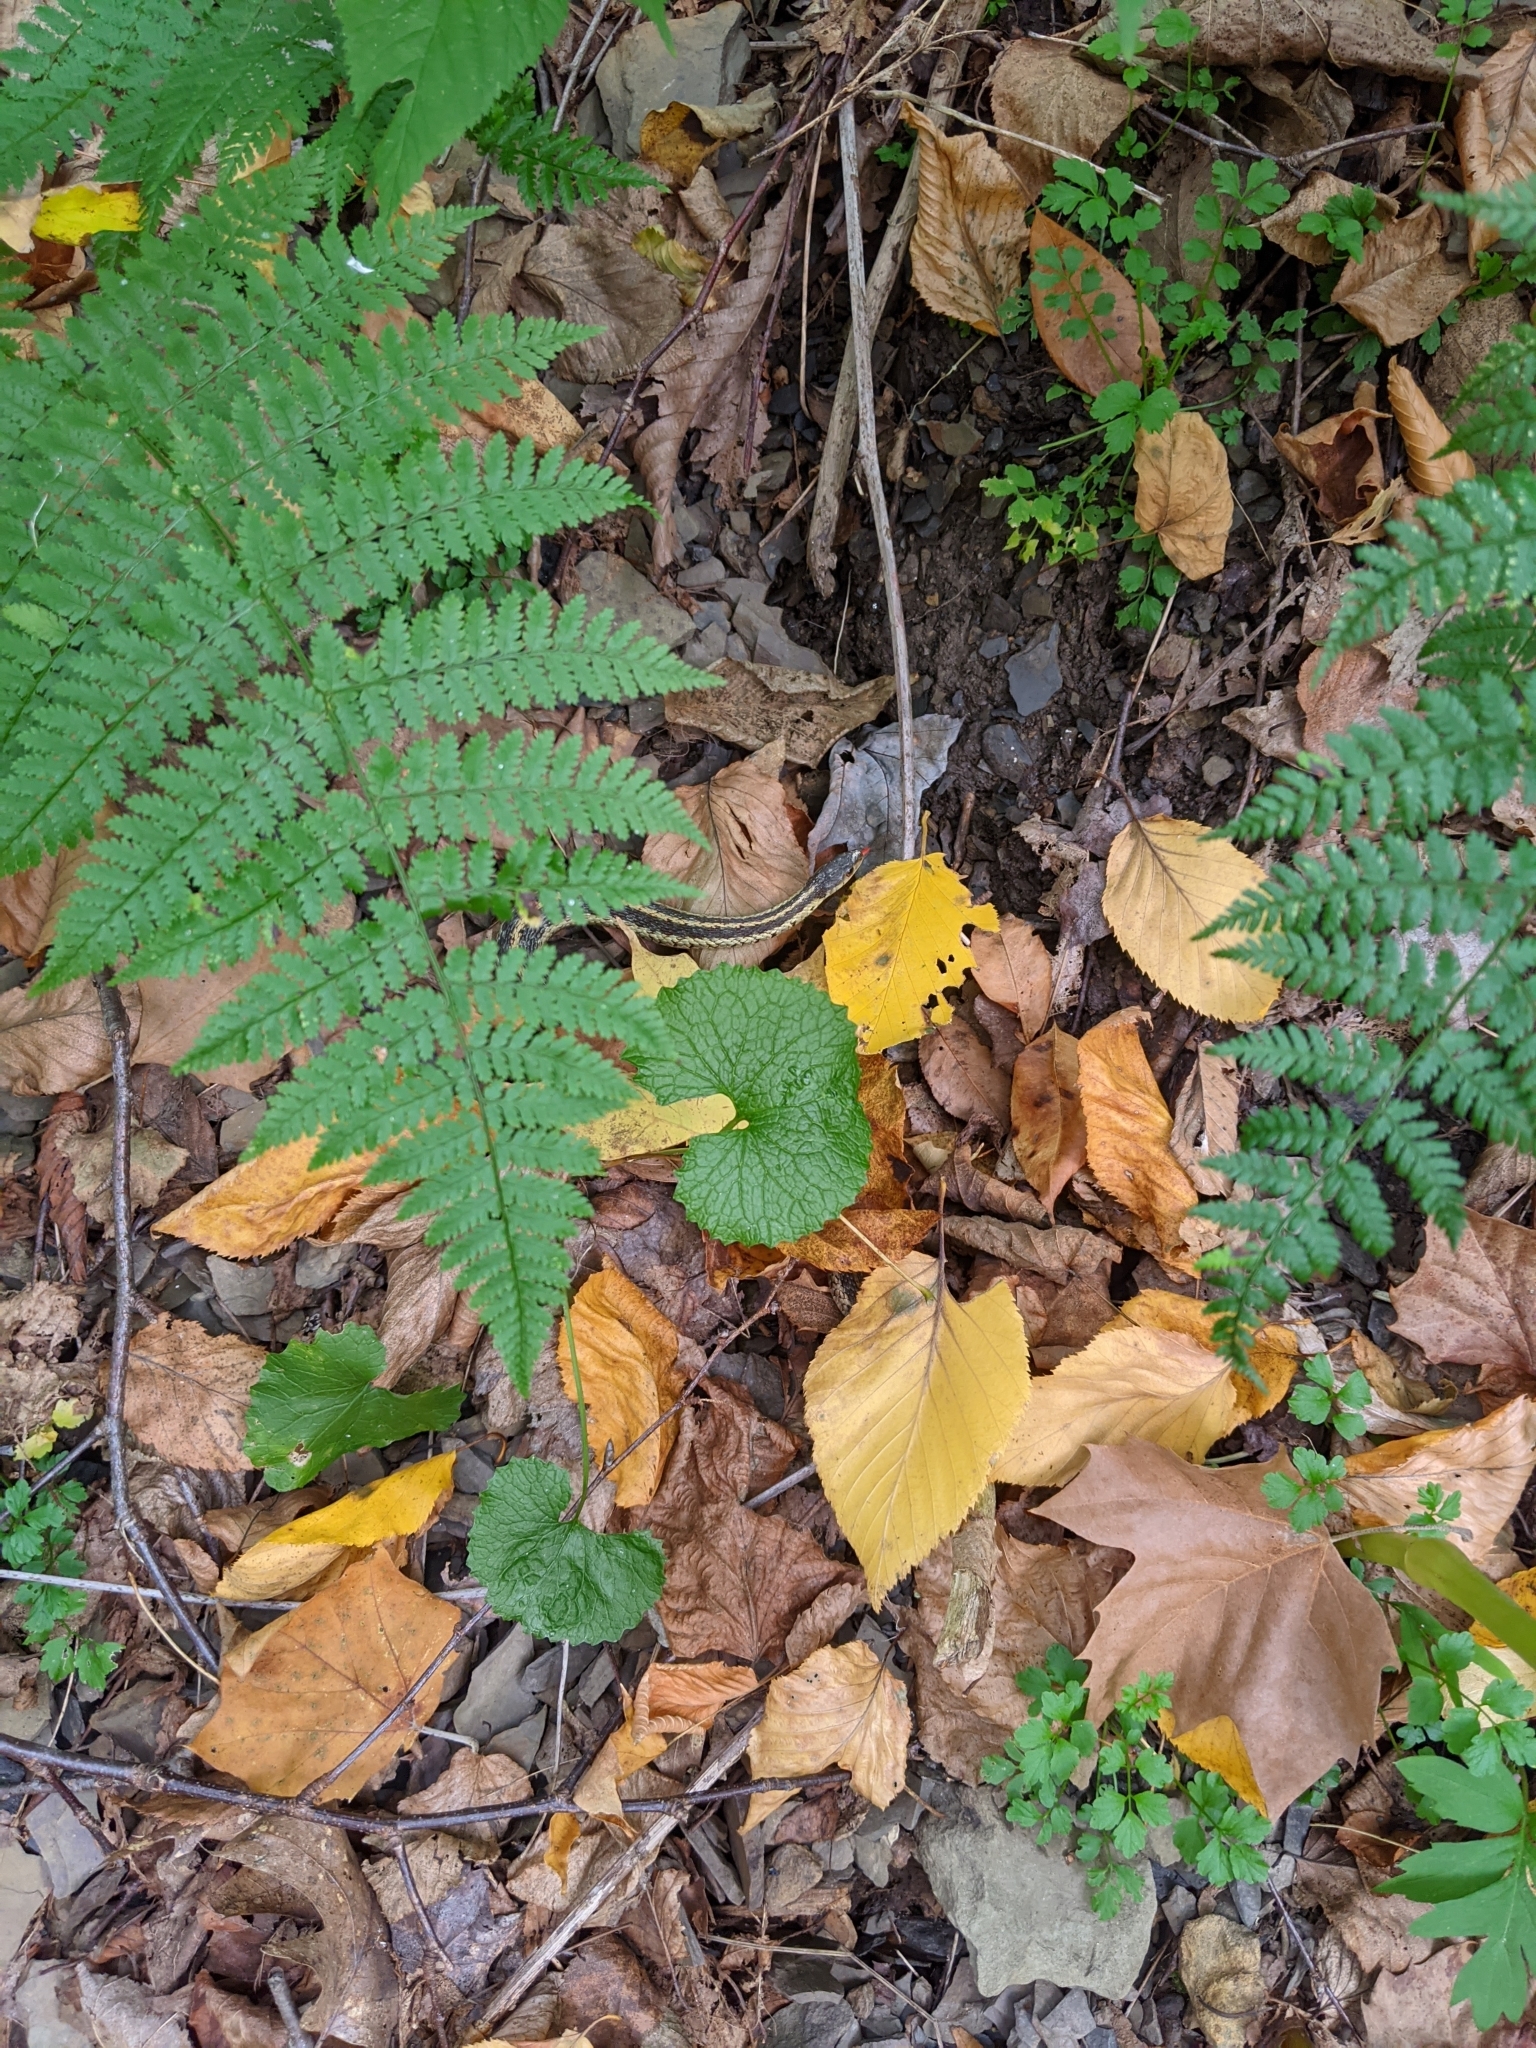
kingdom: Animalia
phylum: Chordata
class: Squamata
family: Colubridae
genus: Thamnophis
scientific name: Thamnophis sirtalis
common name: Common garter snake
